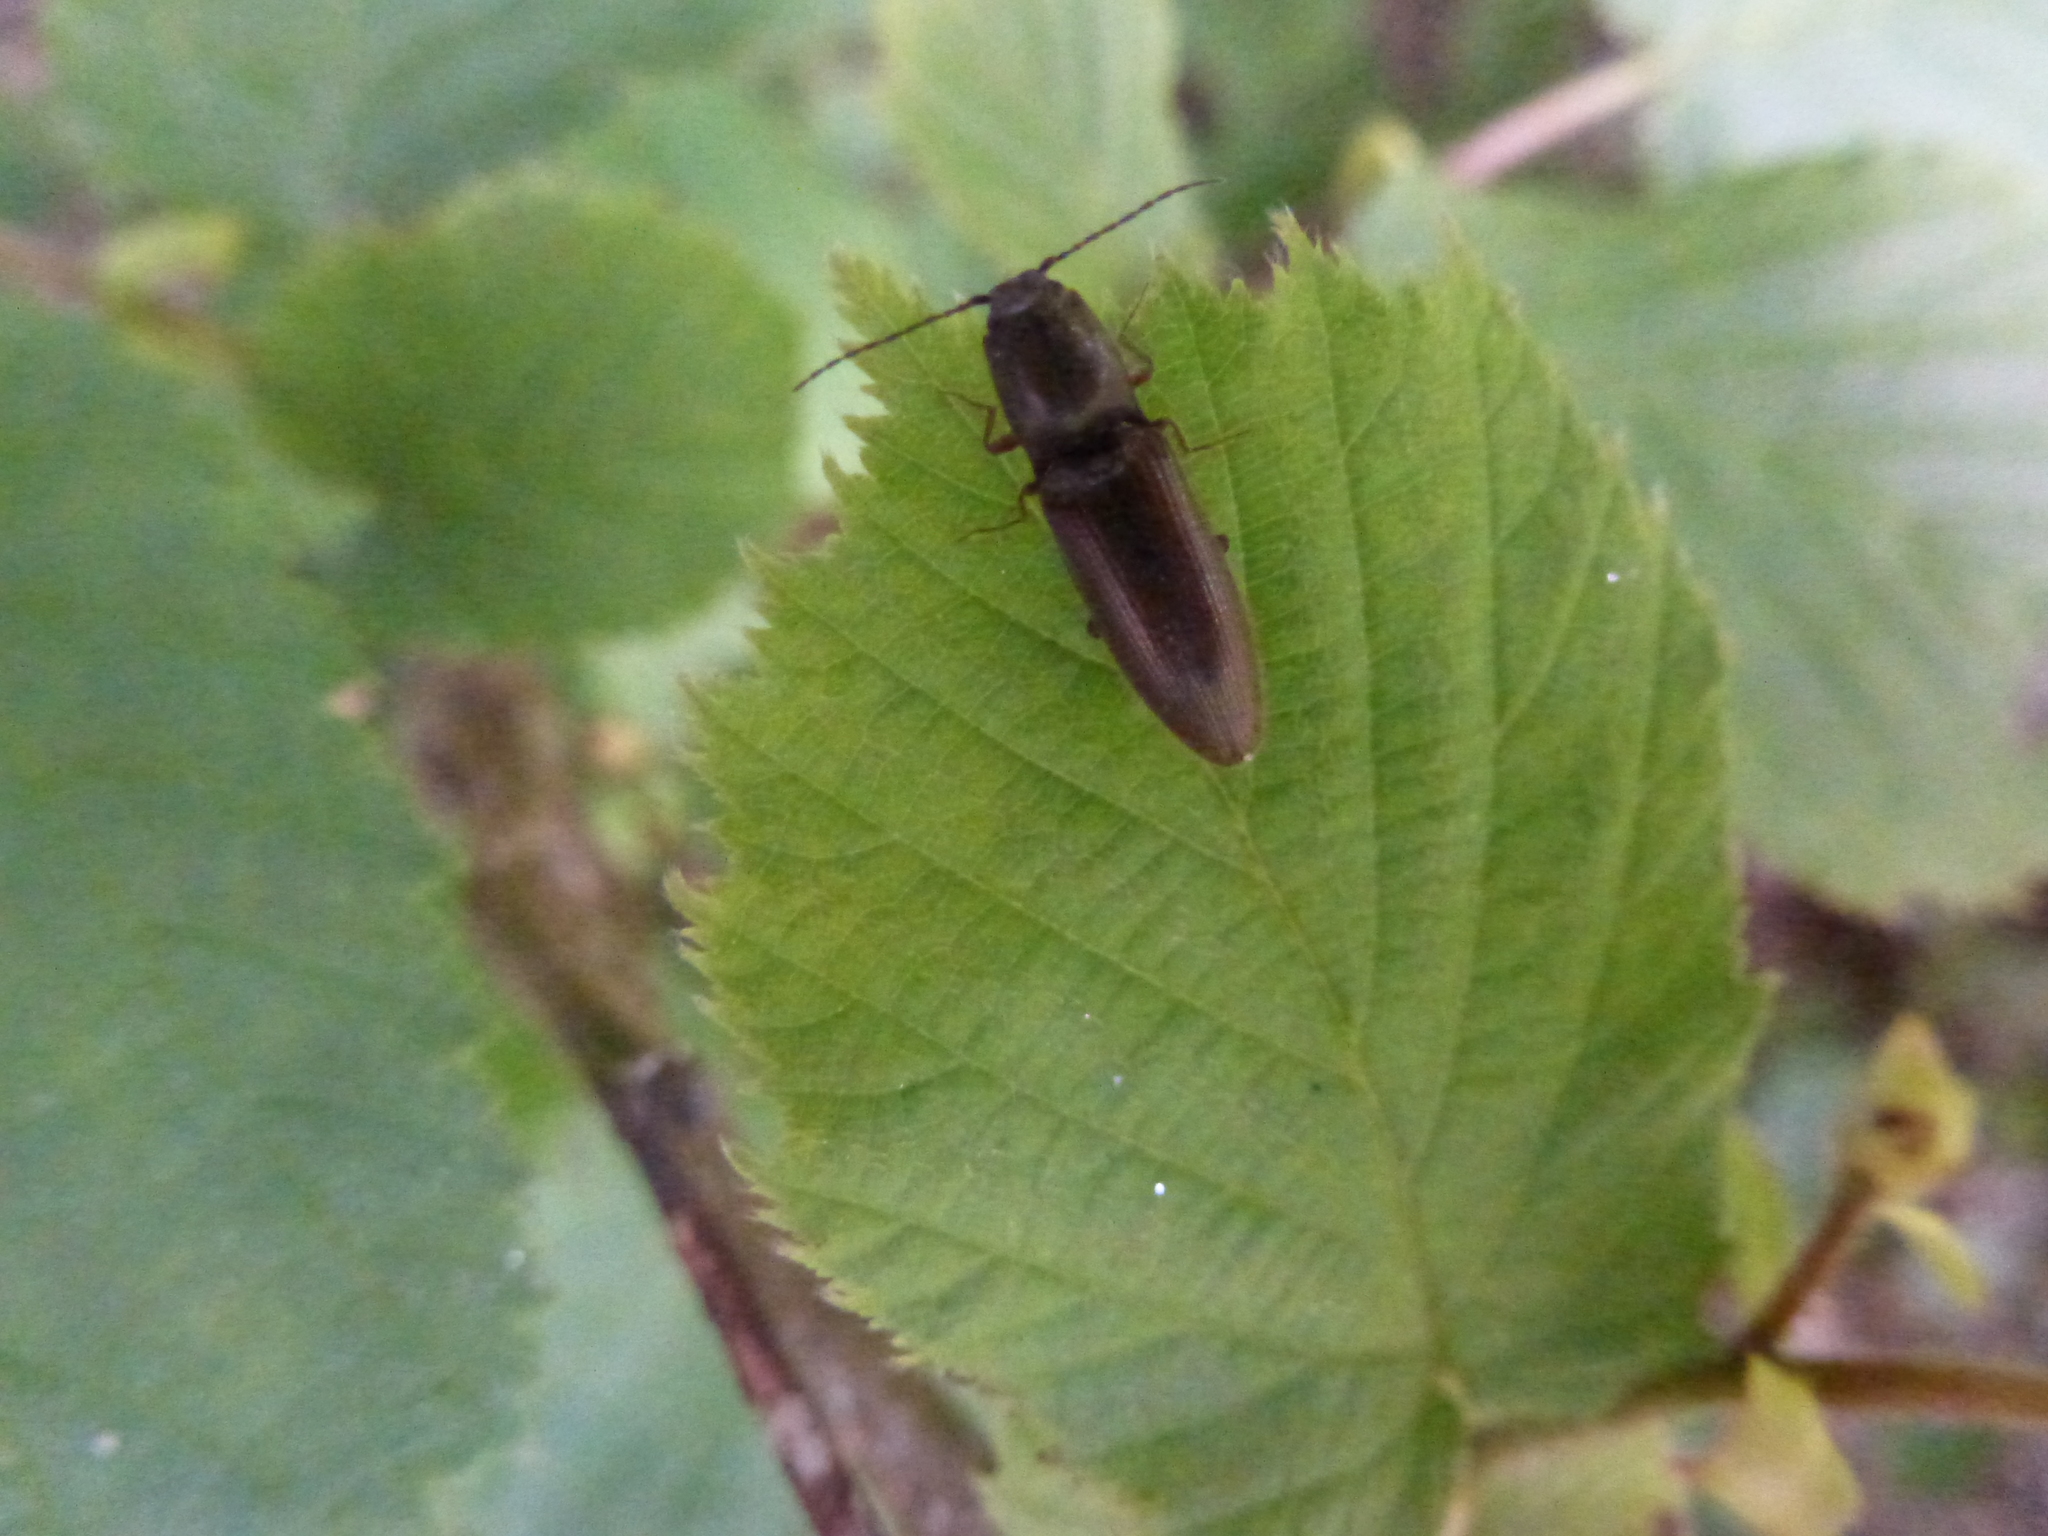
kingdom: Animalia
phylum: Arthropoda
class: Insecta
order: Coleoptera
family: Elateridae
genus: Athous
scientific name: Athous haemorrhoidalis
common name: Red-brown click beetle
